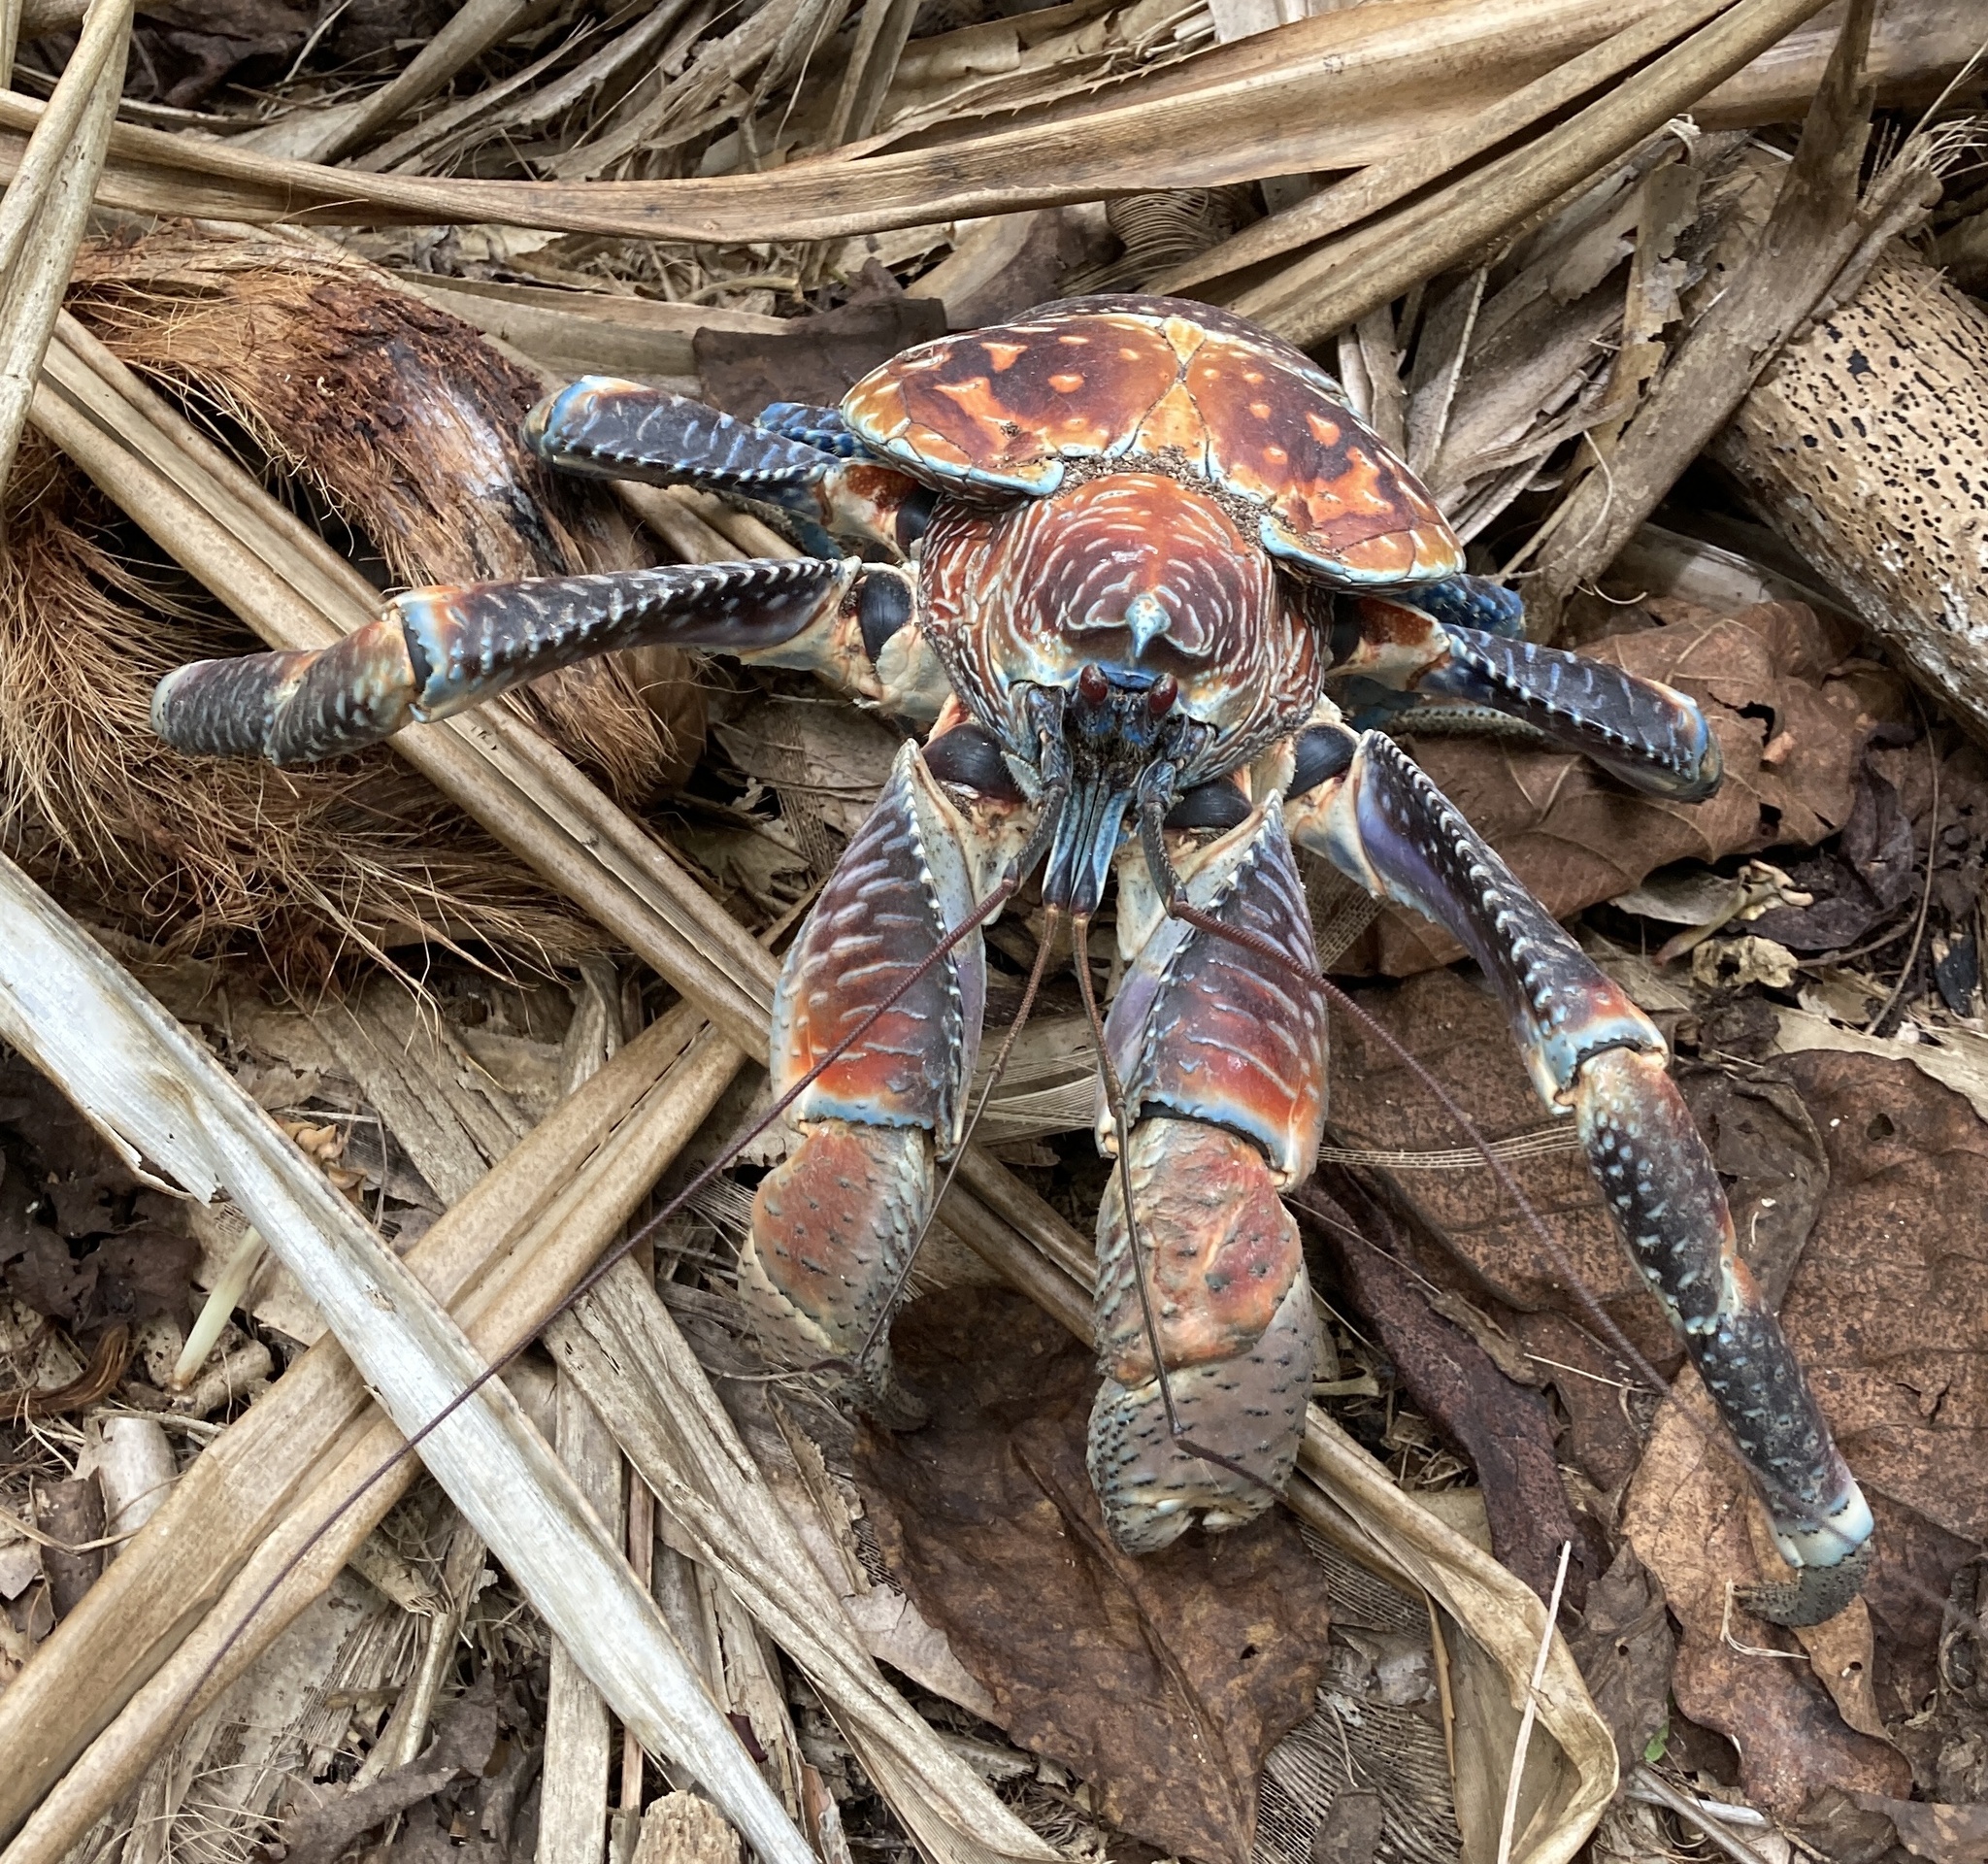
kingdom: Animalia
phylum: Arthropoda
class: Malacostraca
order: Decapoda
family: Coenobitidae
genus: Birgus
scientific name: Birgus latro
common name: Coconut crab
